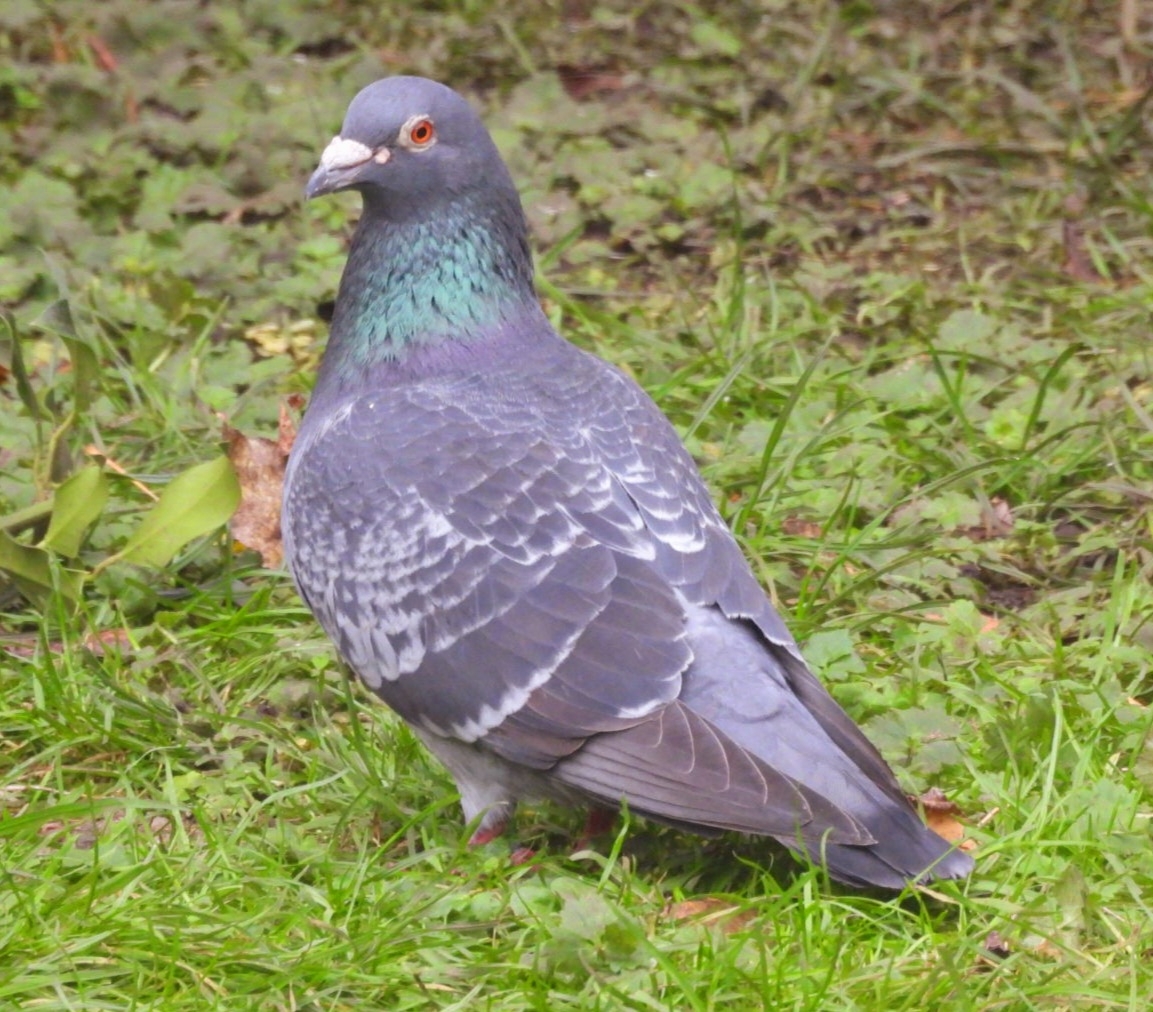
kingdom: Animalia
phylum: Chordata
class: Aves
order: Columbiformes
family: Columbidae
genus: Columba
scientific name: Columba livia
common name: Rock pigeon
